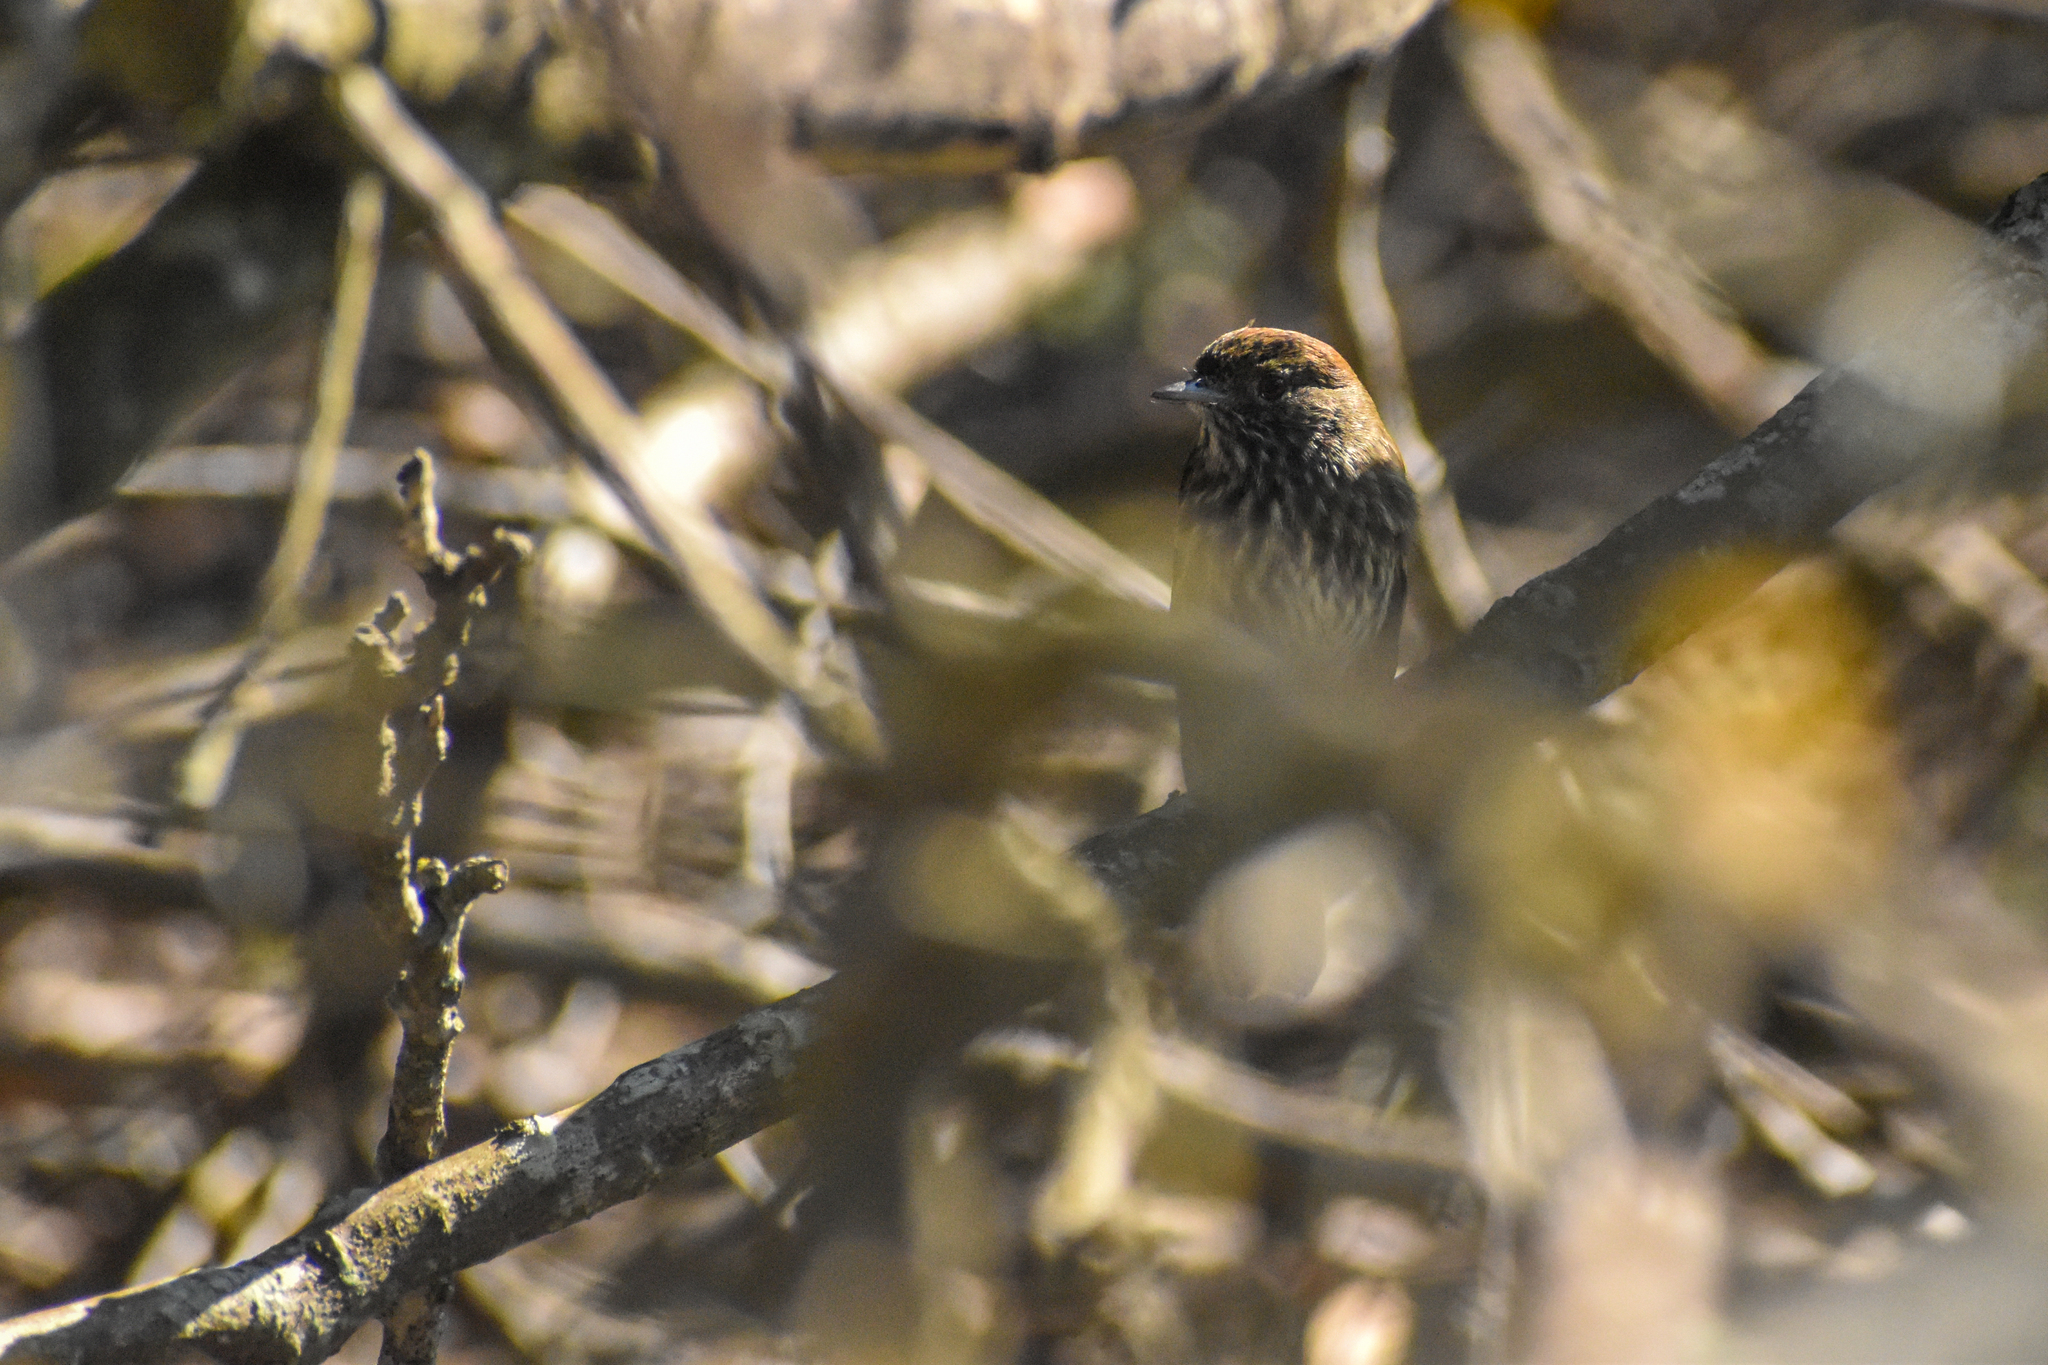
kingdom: Animalia
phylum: Chordata
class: Aves
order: Passeriformes
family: Tyrannidae
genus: Knipolegus
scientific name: Knipolegus cyanirostris
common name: Blue-billed black tyrant
